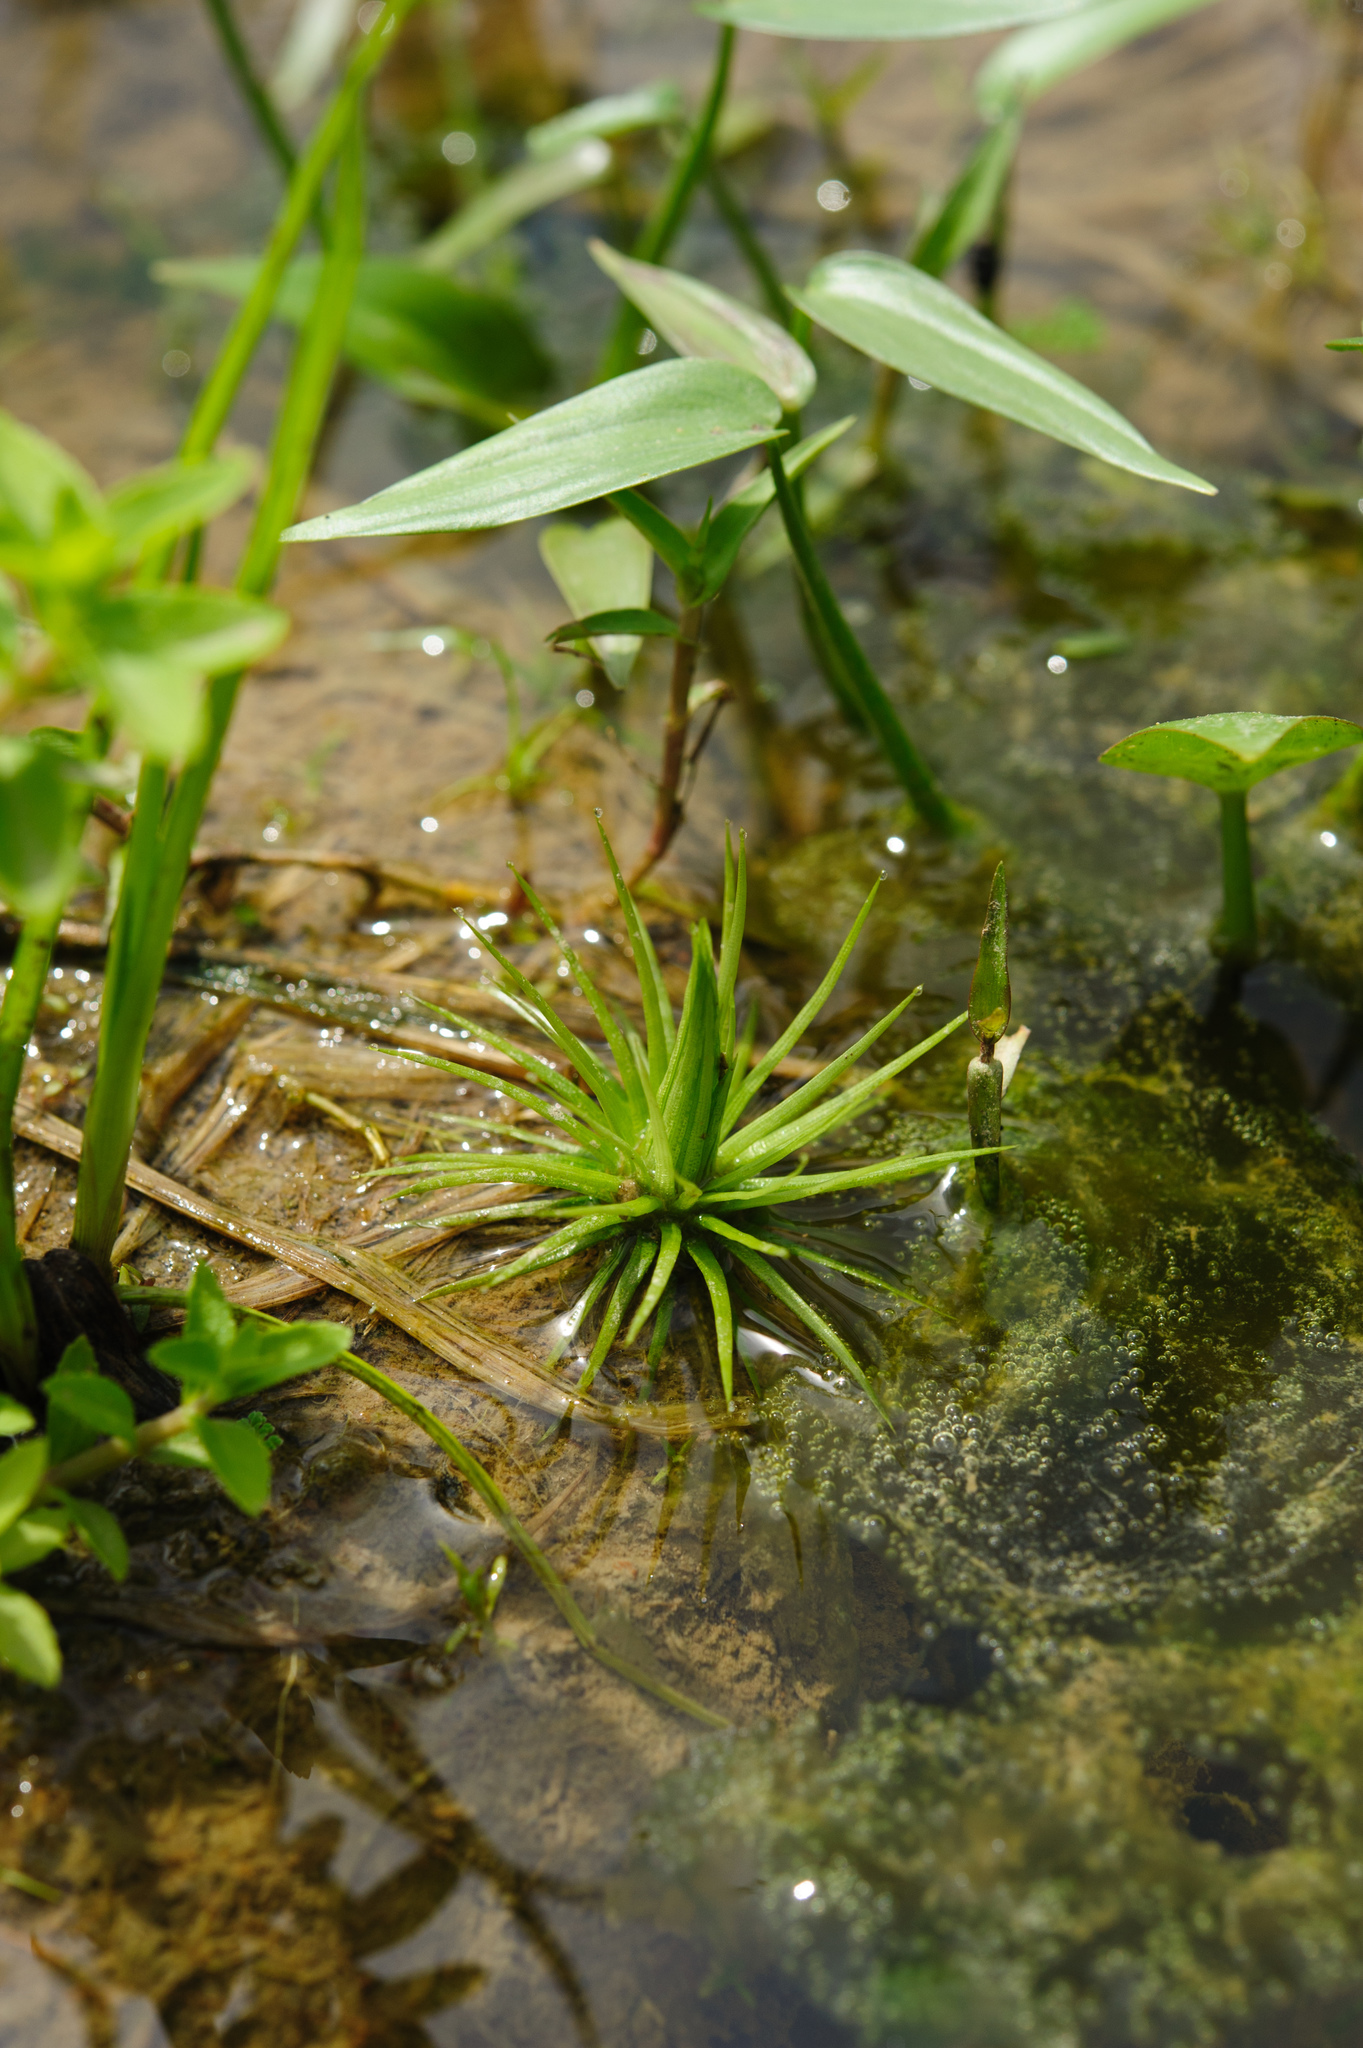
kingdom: Plantae
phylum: Tracheophyta
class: Liliopsida
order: Poales
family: Eriocaulaceae
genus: Eriocaulon
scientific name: Eriocaulon cinereum
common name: Ashy pipewort
